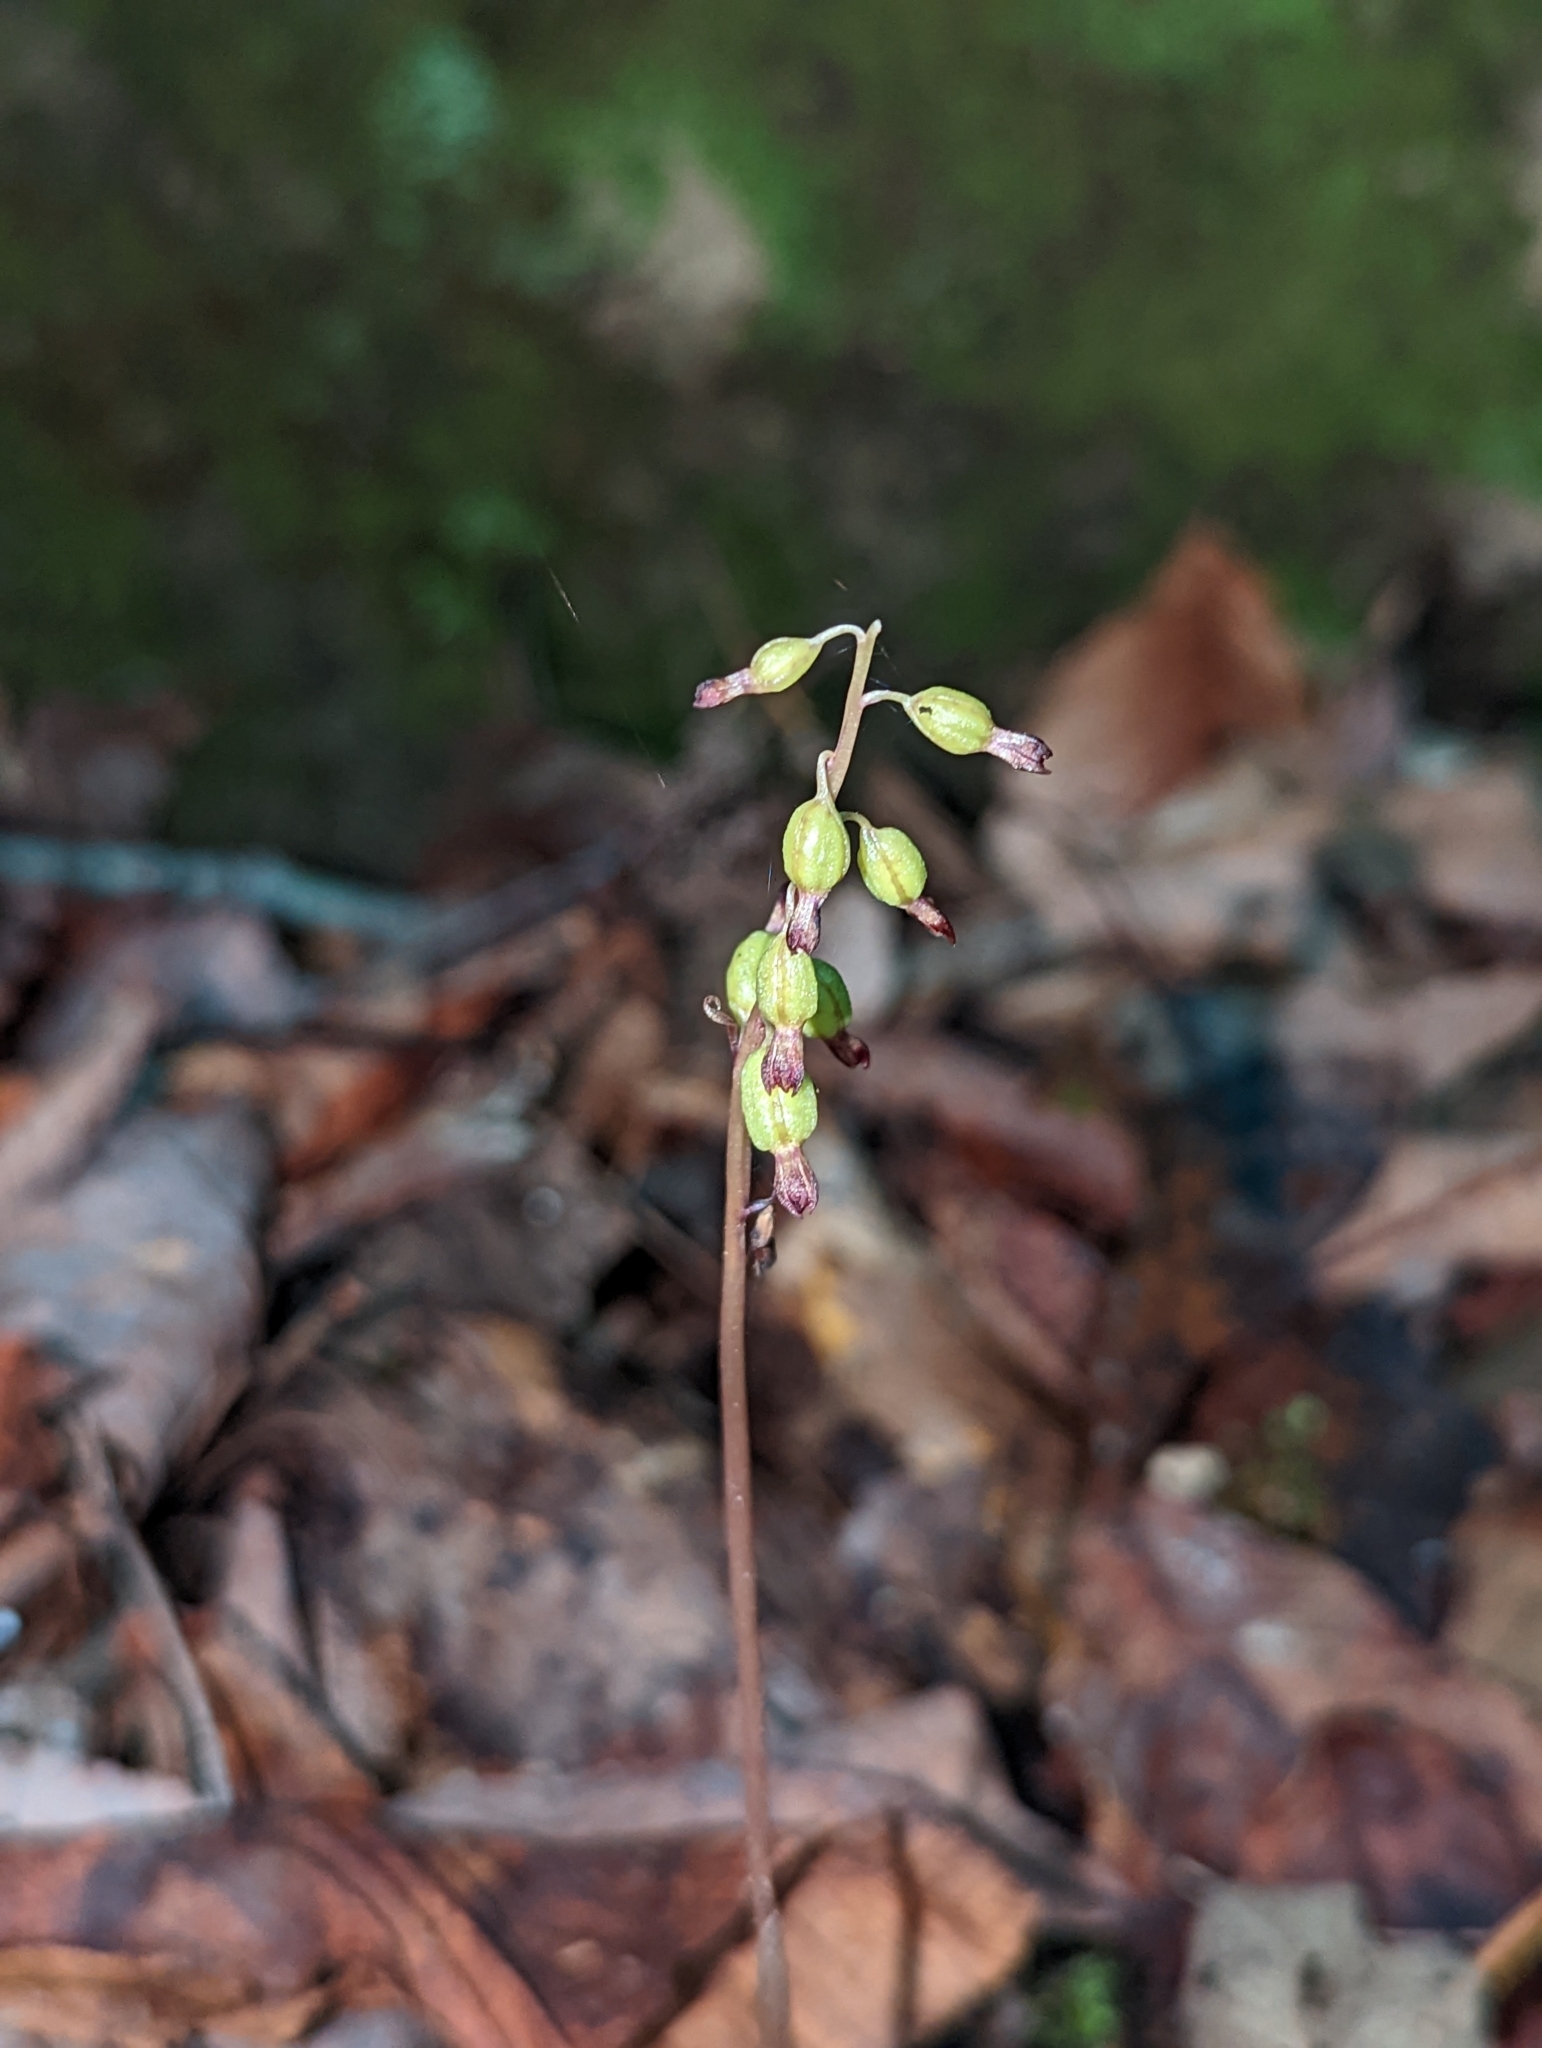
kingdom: Plantae
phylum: Tracheophyta
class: Liliopsida
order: Asparagales
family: Orchidaceae
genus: Corallorhiza
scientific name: Corallorhiza odontorhiza
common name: Autumn coralroot
